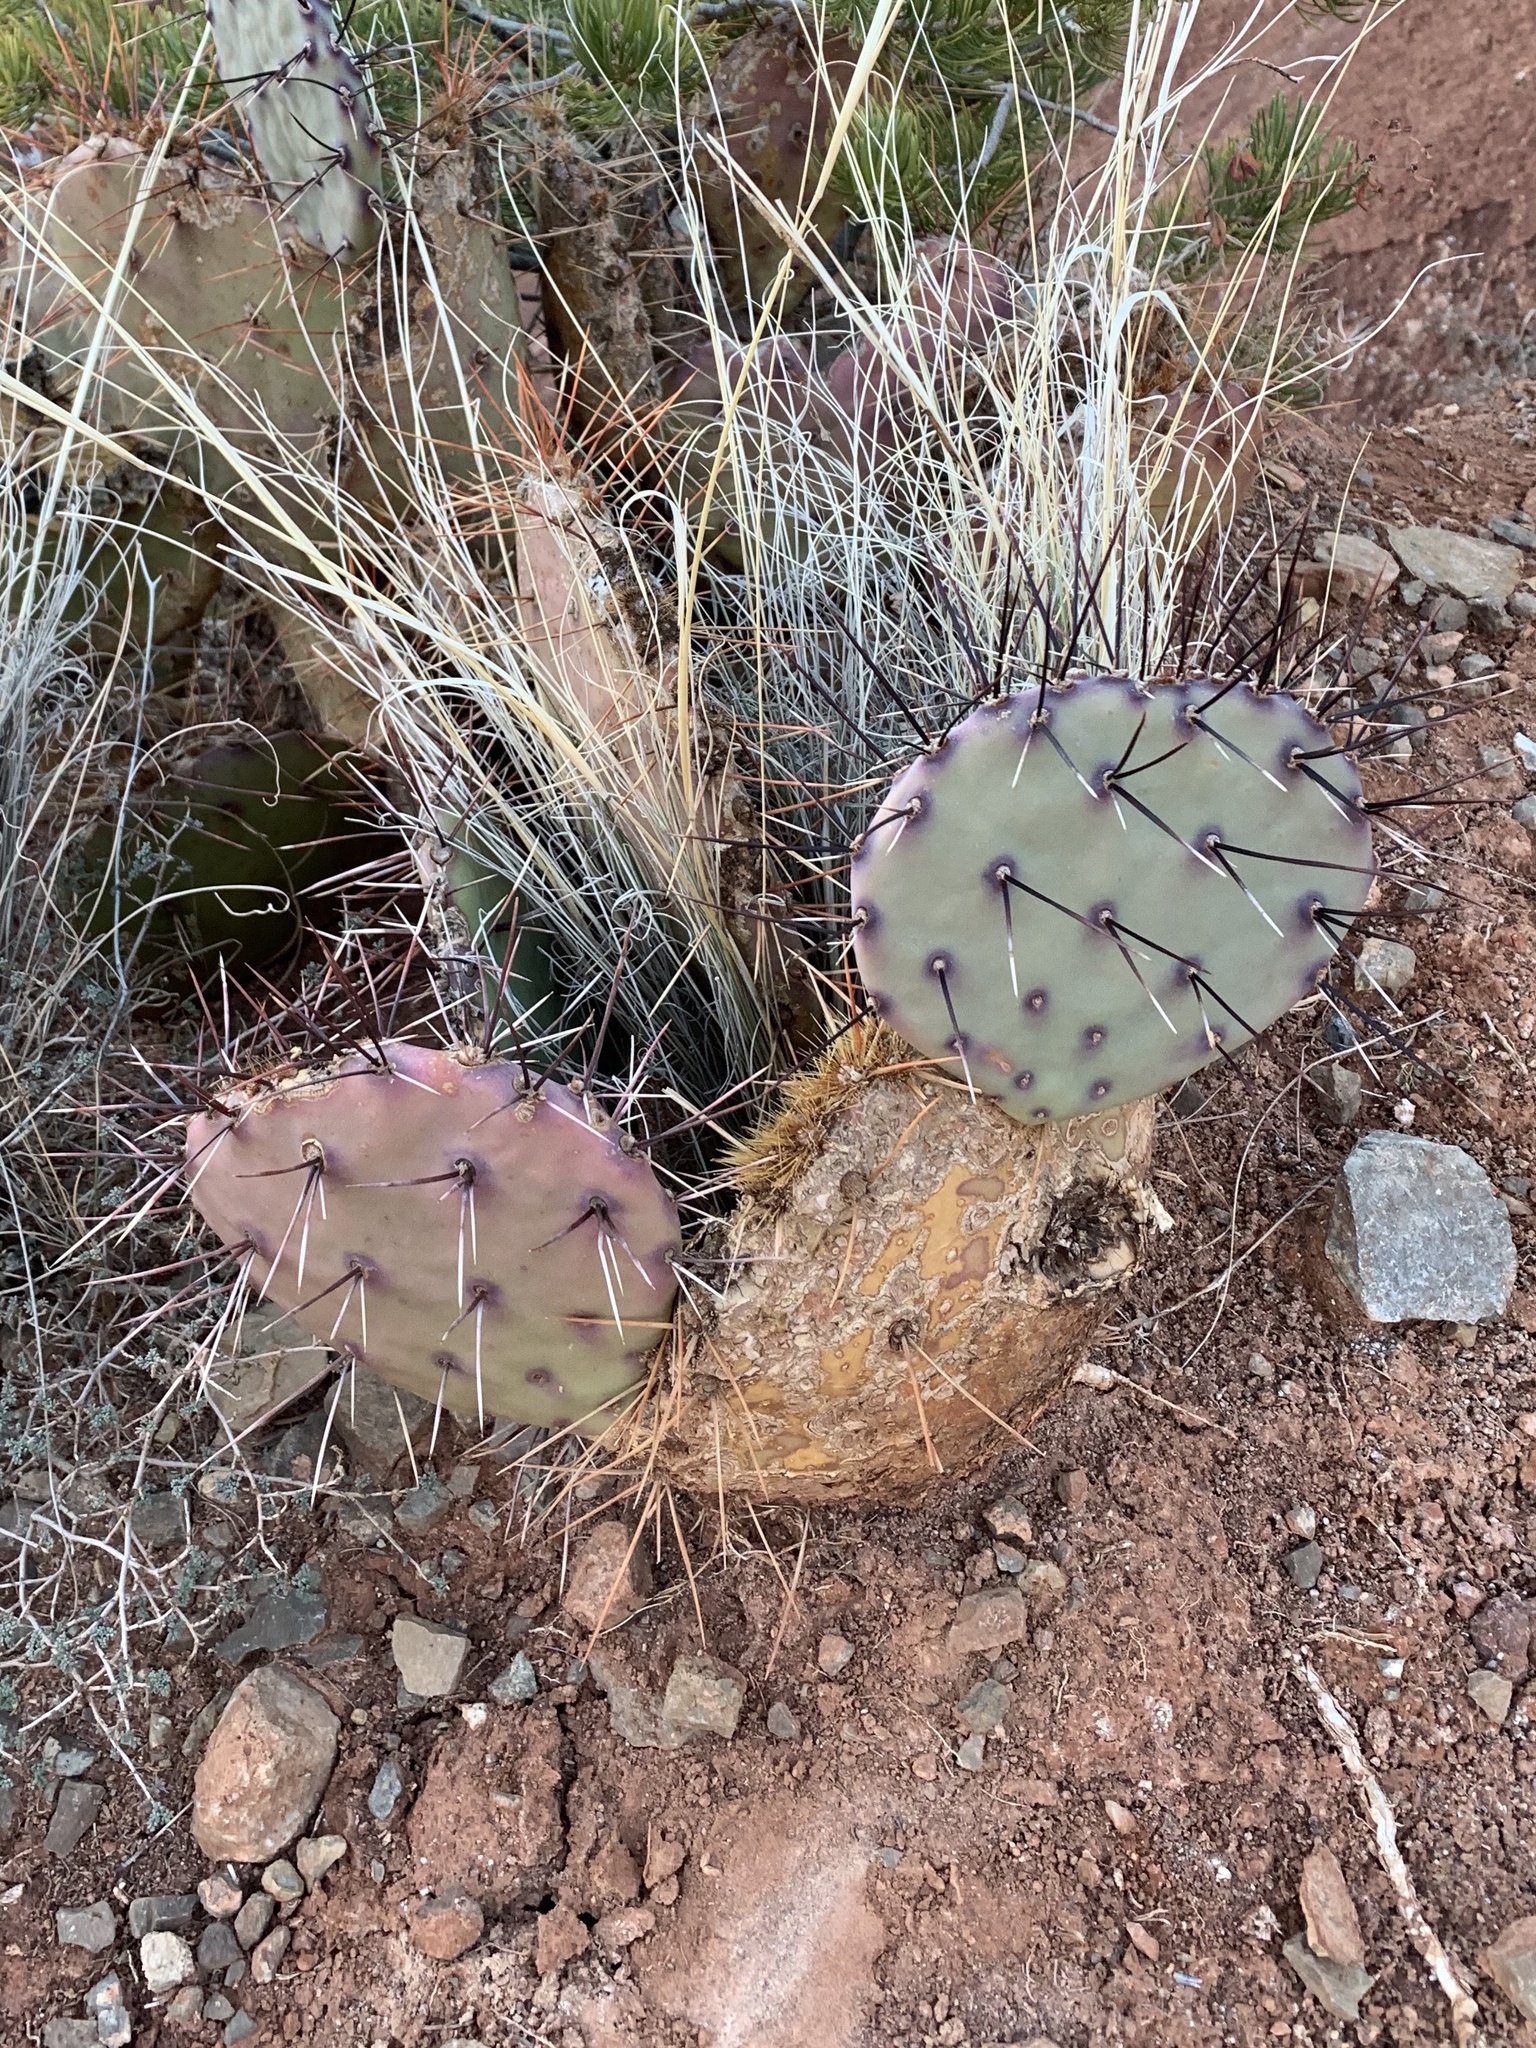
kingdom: Plantae
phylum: Tracheophyta
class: Magnoliopsida
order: Caryophyllales
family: Cactaceae
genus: Opuntia
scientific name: Opuntia phaeacantha
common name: New mexico prickly-pear
